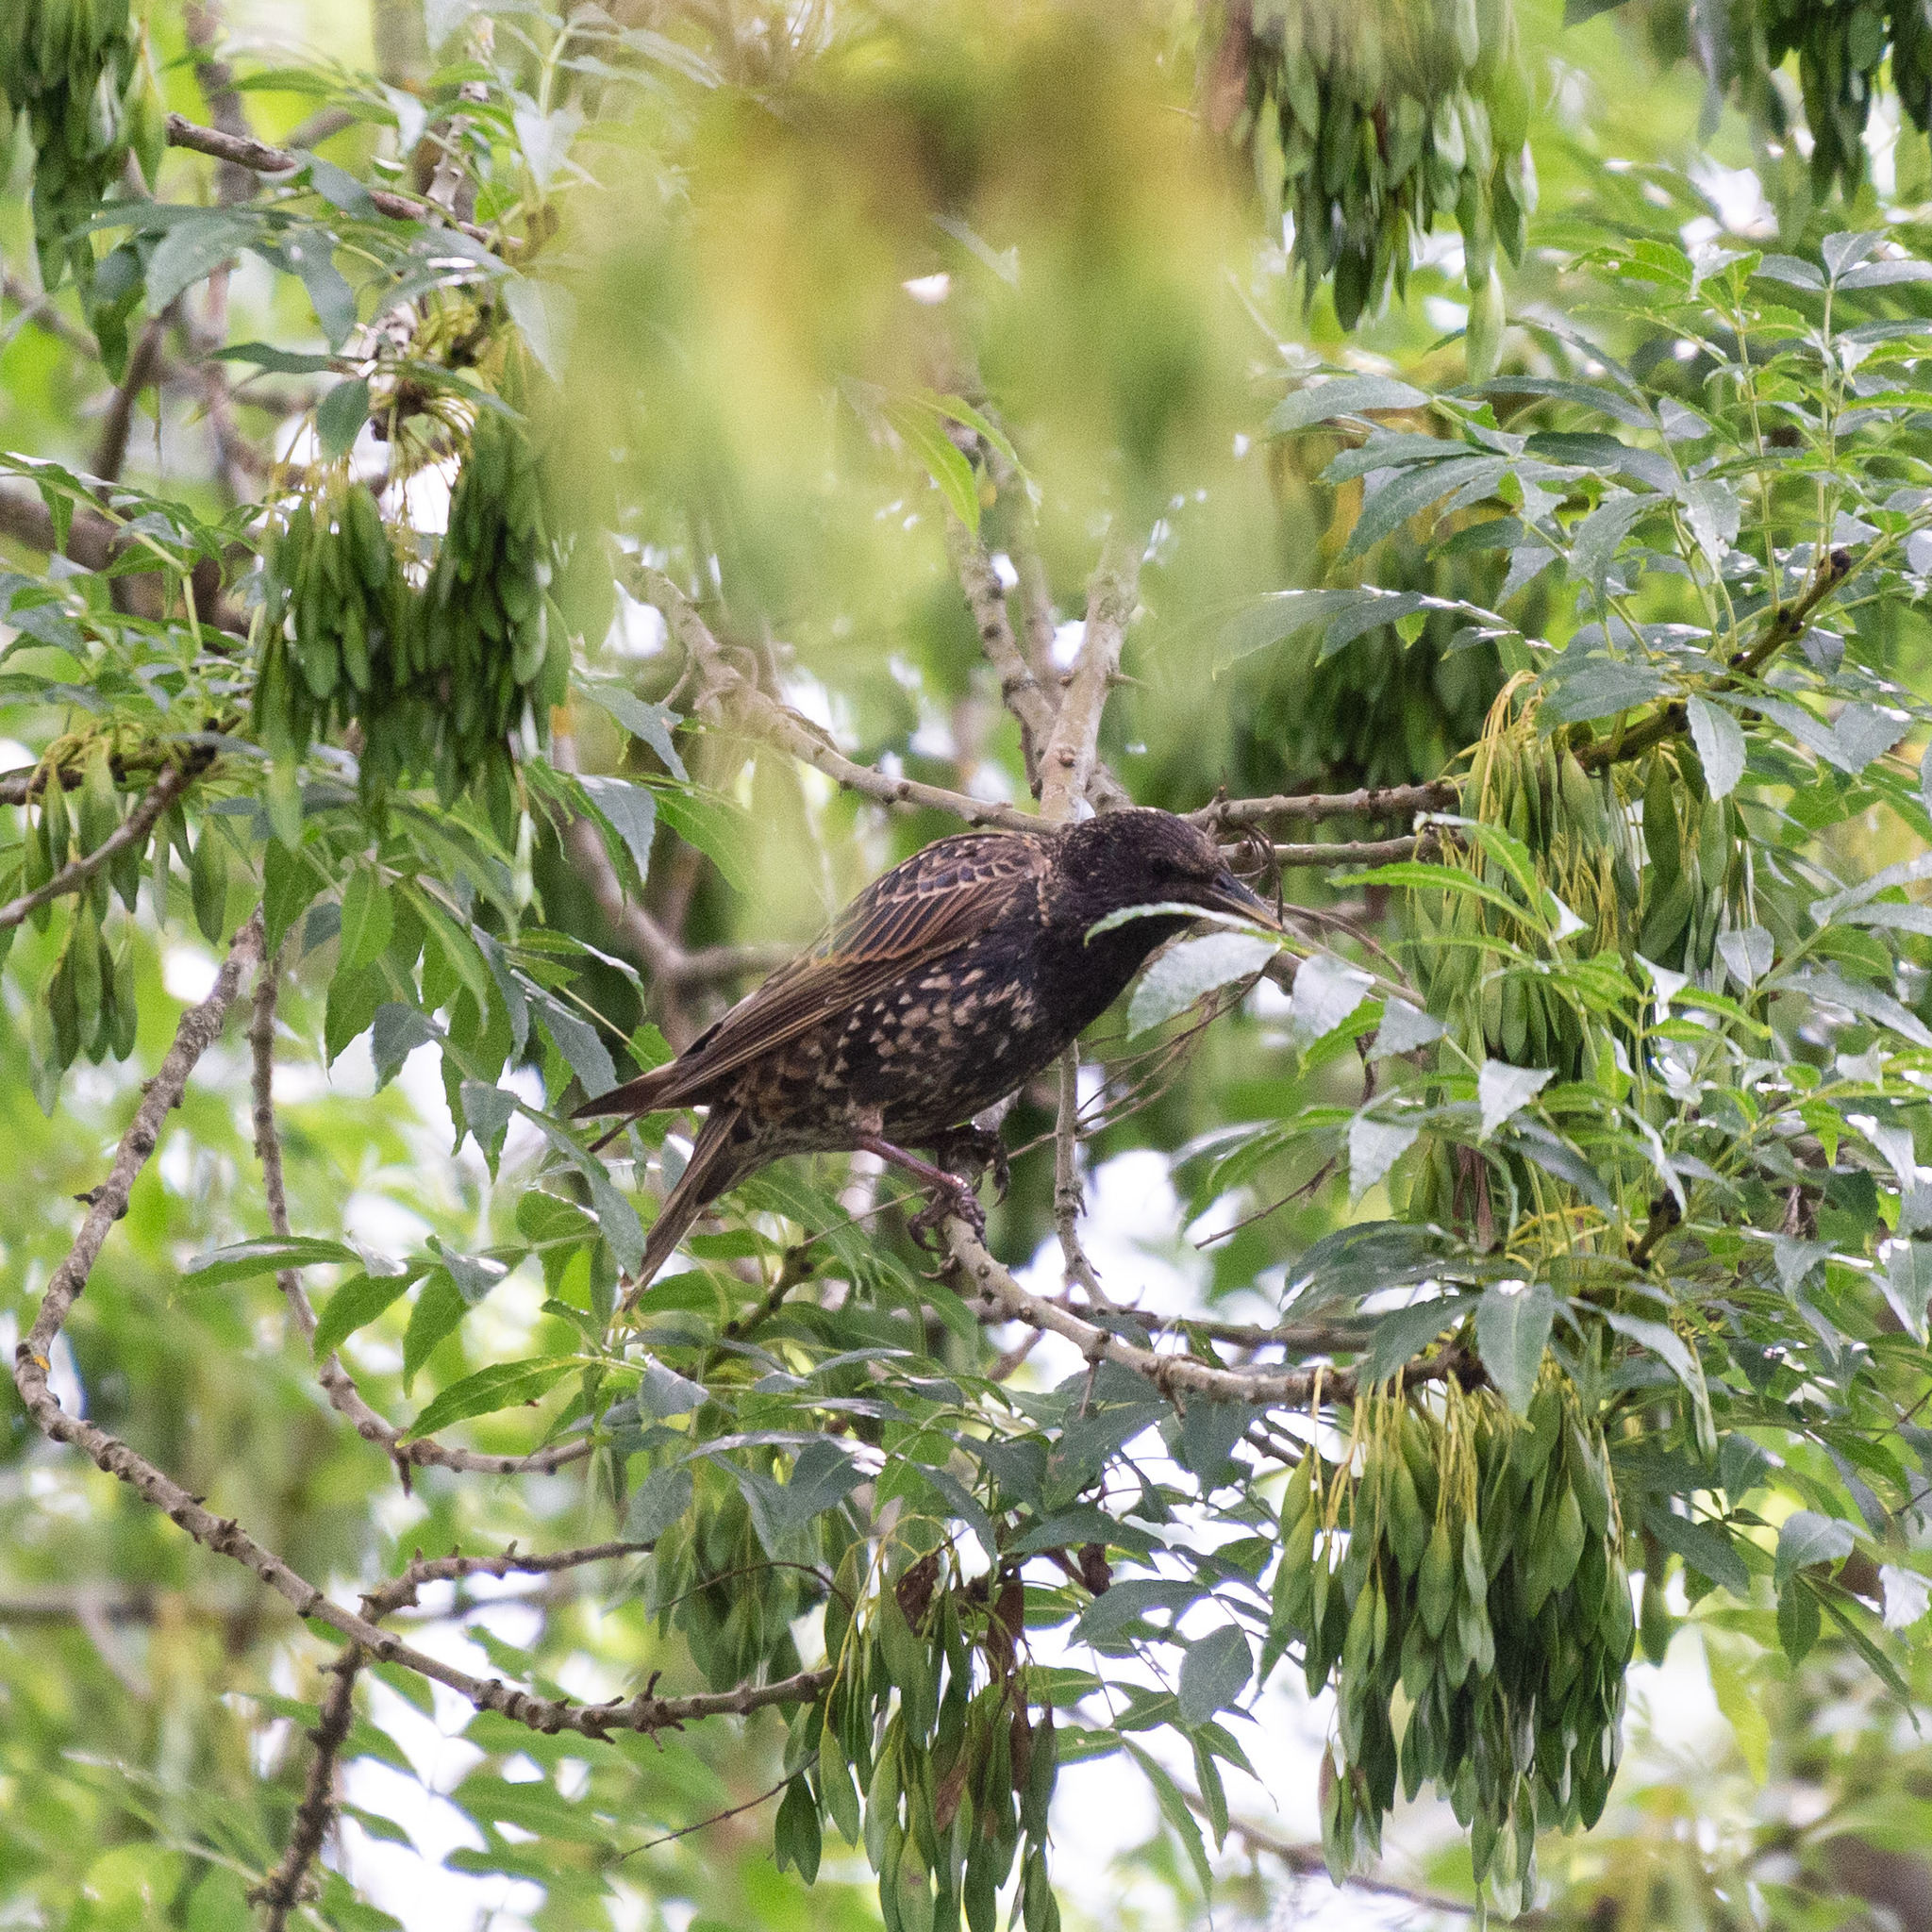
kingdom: Animalia
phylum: Chordata
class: Aves
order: Passeriformes
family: Sturnidae
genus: Sturnus
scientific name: Sturnus vulgaris
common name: Common starling
